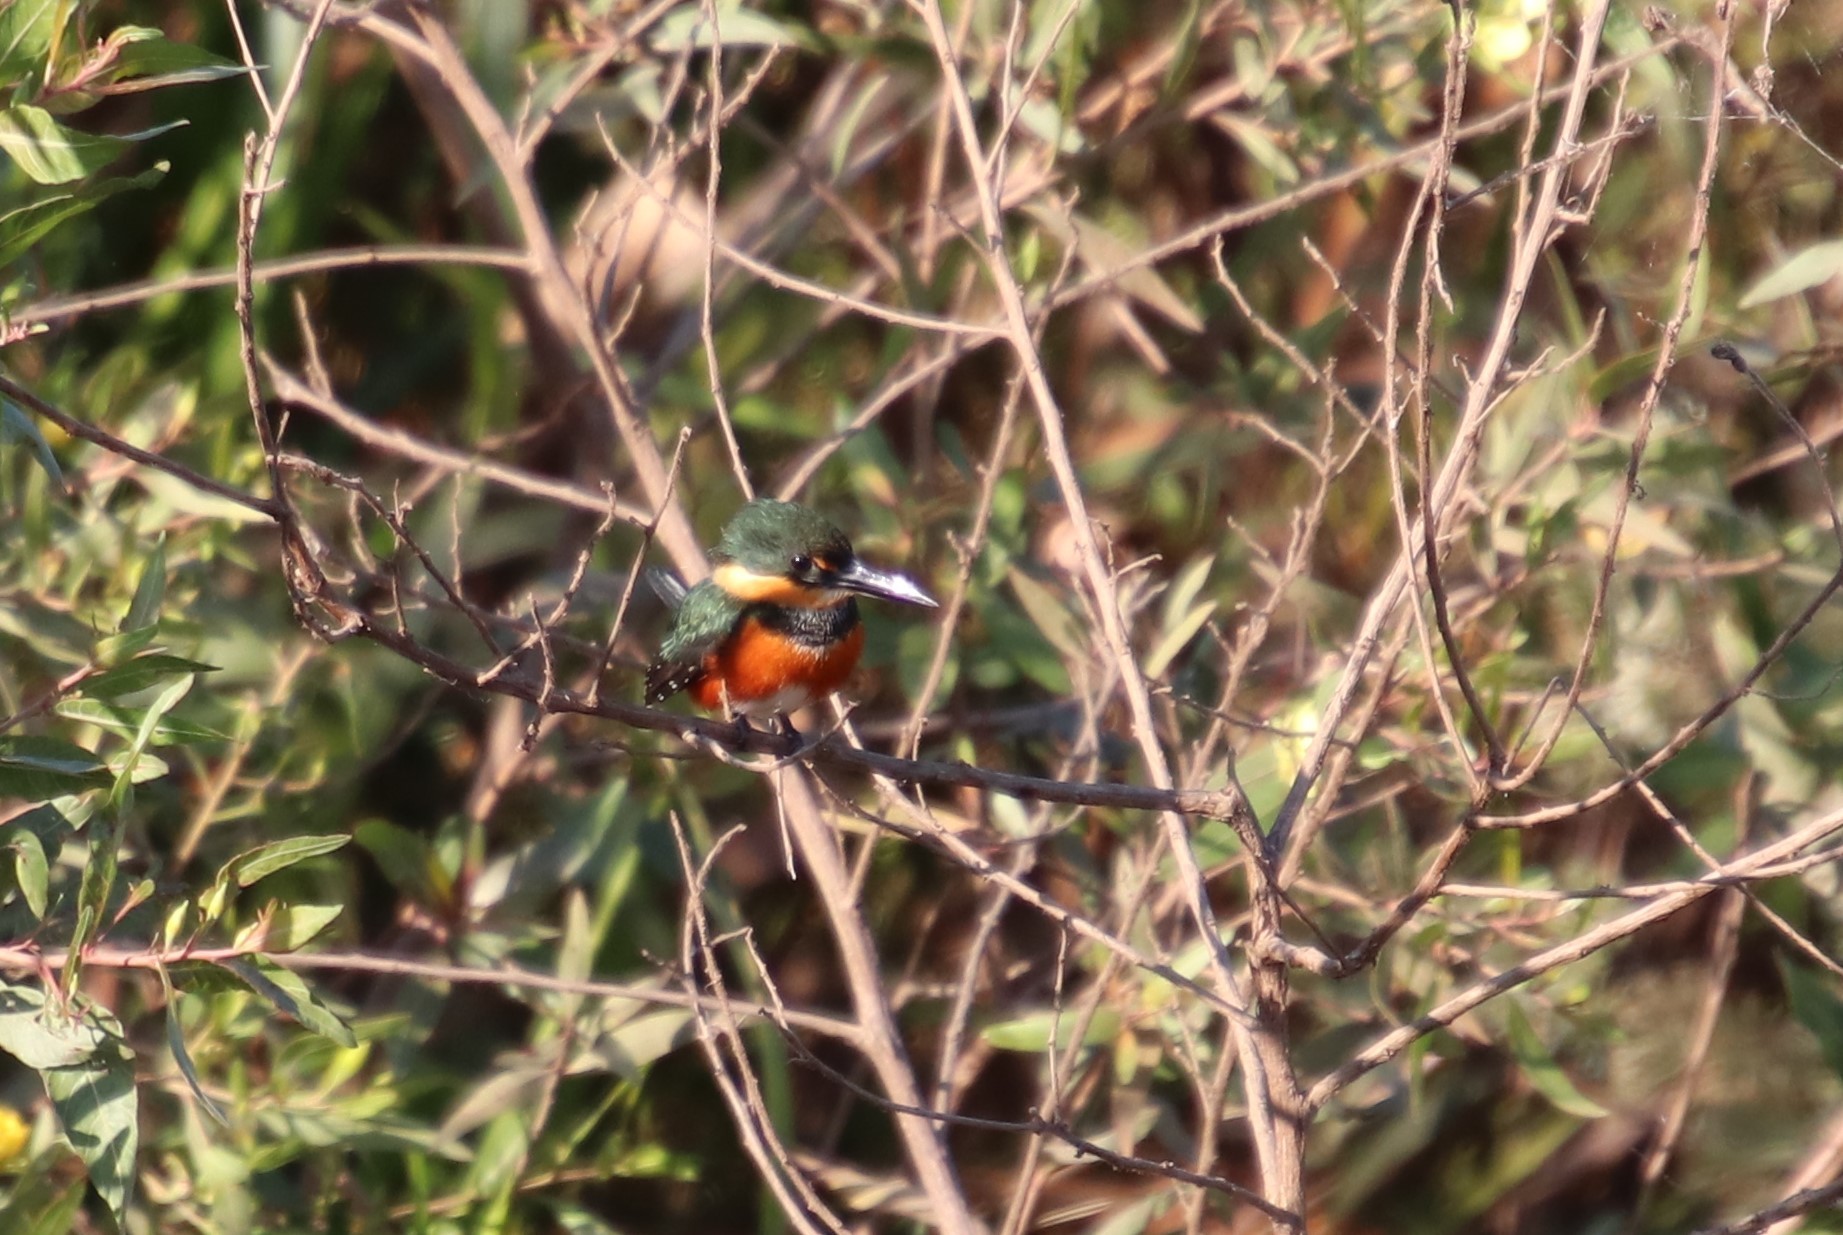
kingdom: Animalia
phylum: Chordata
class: Aves
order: Coraciiformes
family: Alcedinidae
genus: Chloroceryle
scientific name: Chloroceryle aenea
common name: American pygmy kingfisher
